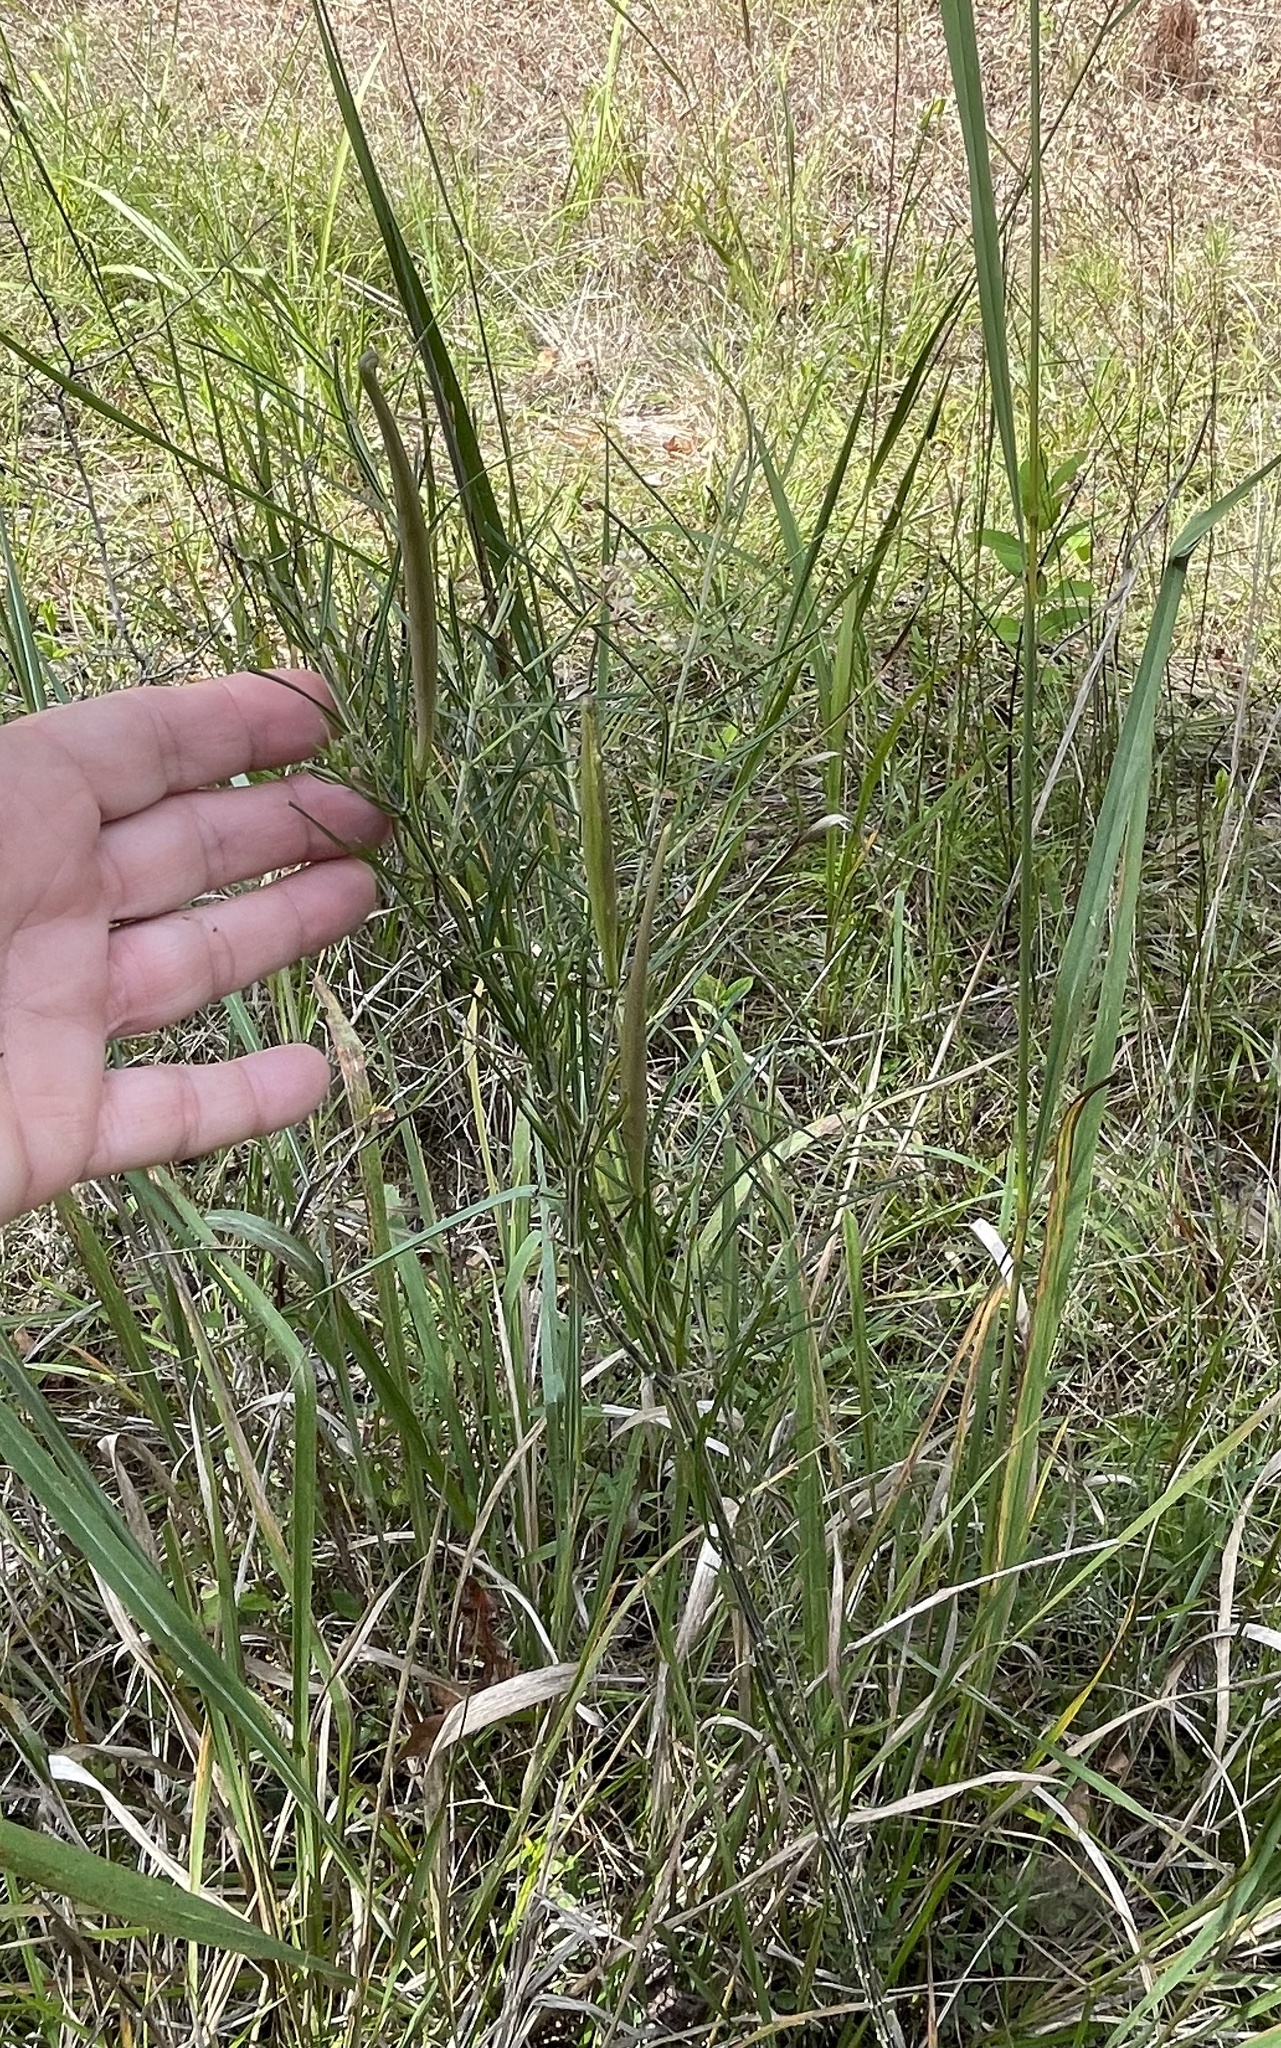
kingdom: Plantae
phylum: Tracheophyta
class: Magnoliopsida
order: Gentianales
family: Apocynaceae
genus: Asclepias
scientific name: Asclepias verticillata
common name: Eastern whorled milkweed
